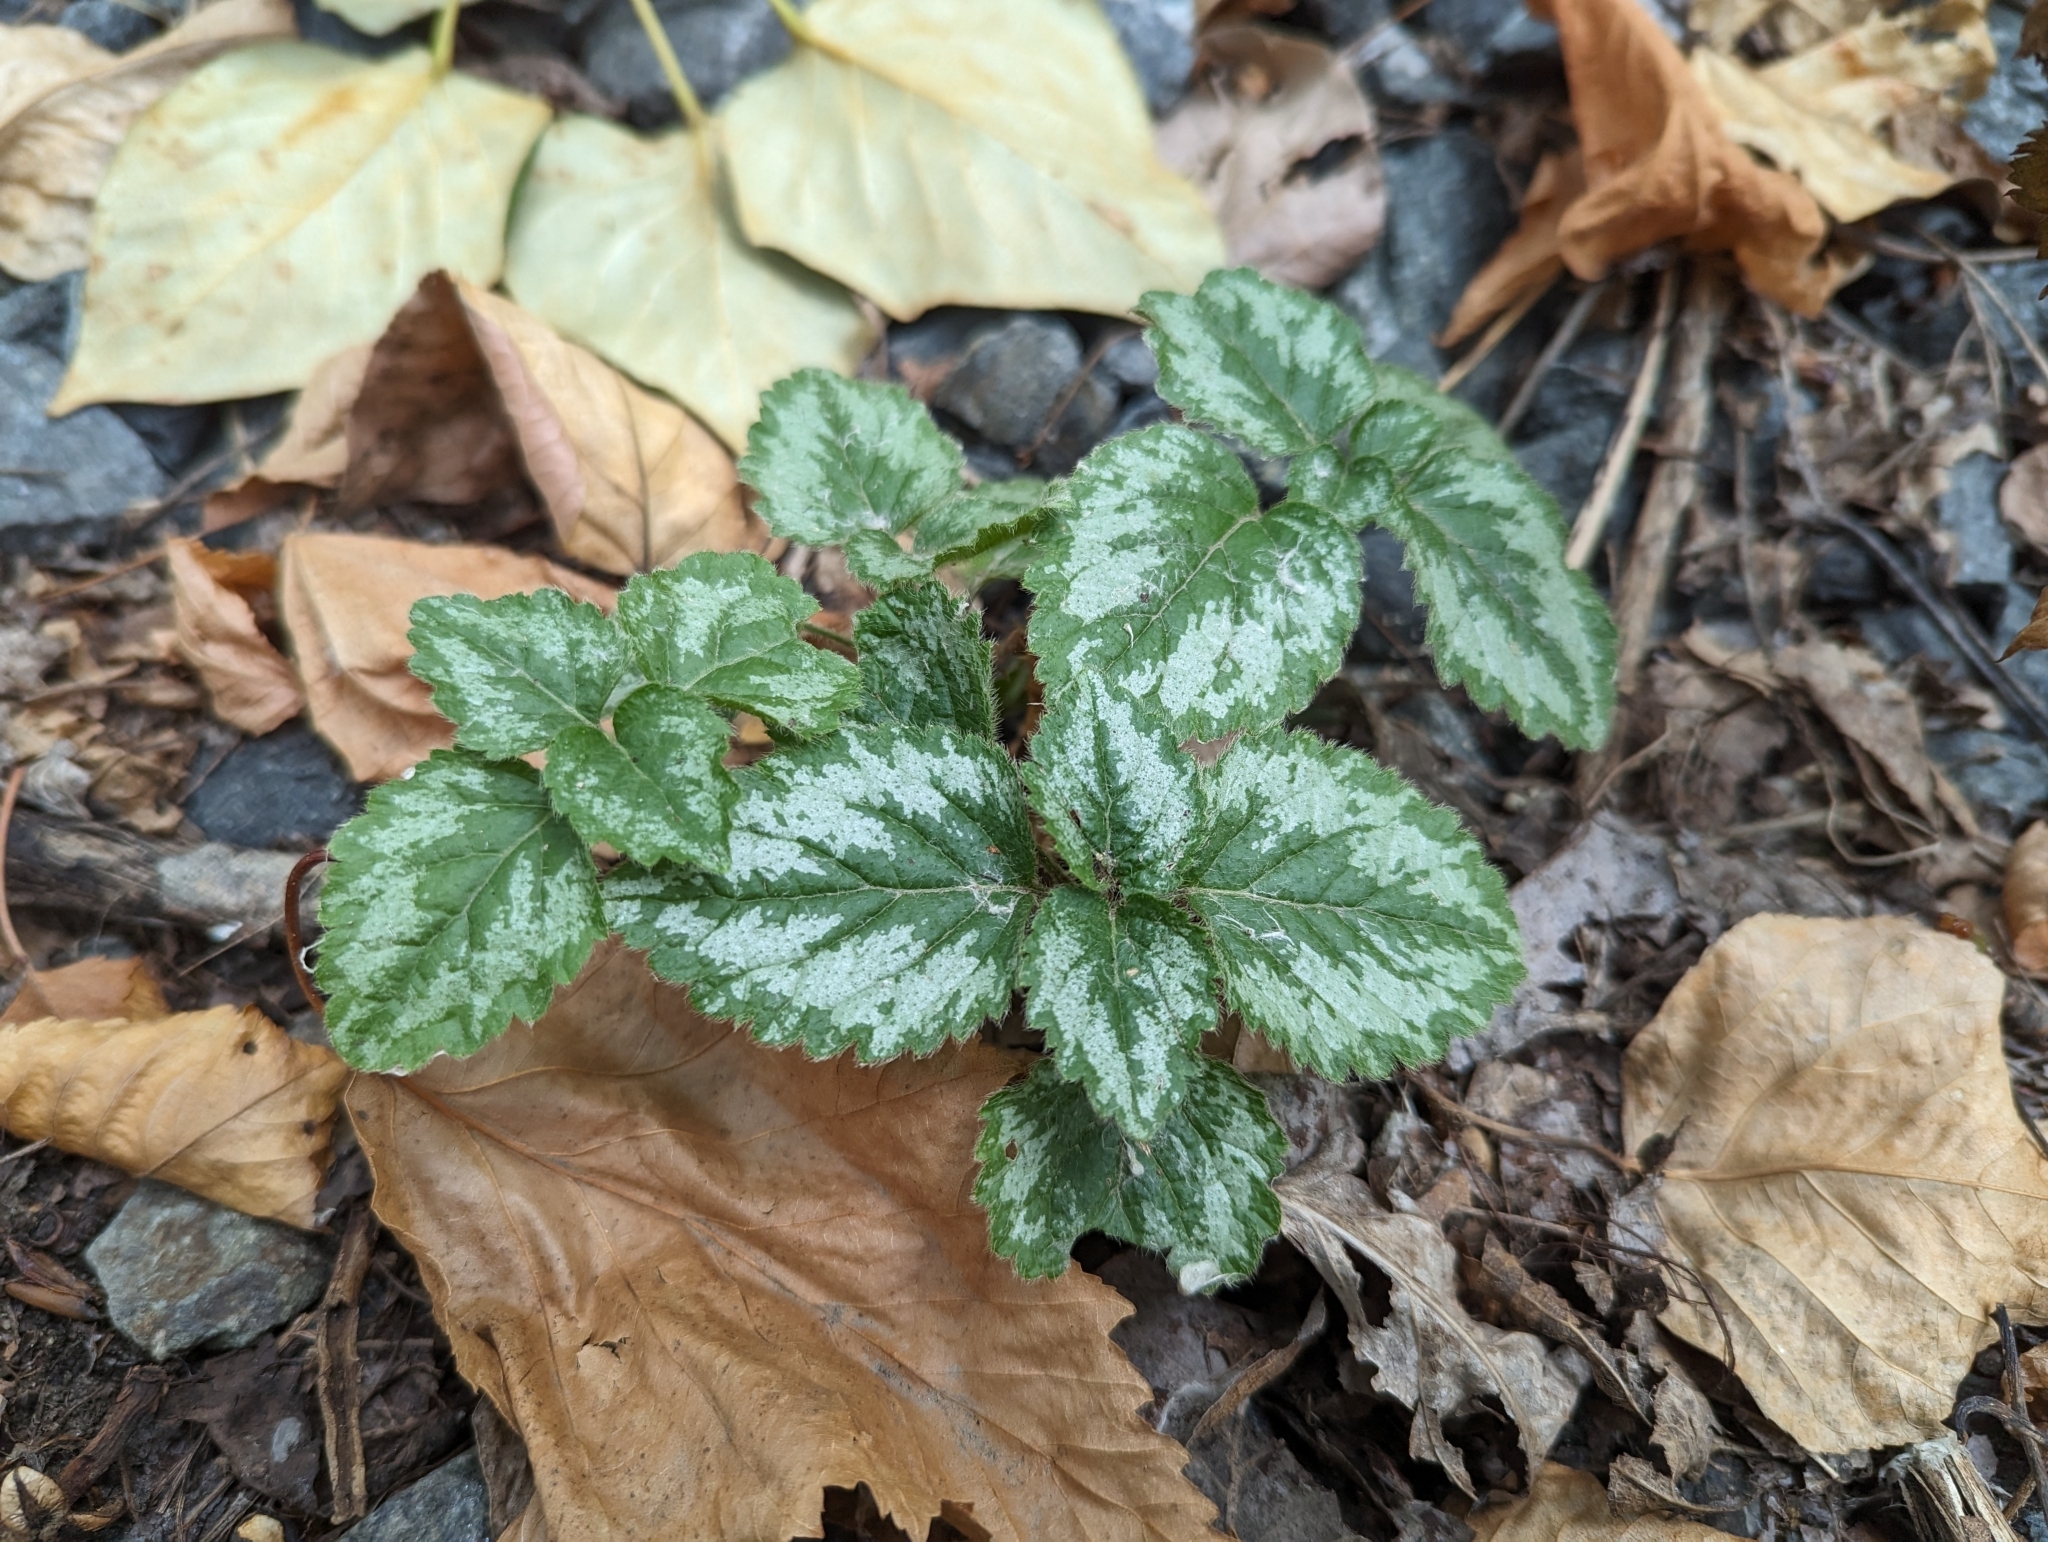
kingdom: Plantae
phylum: Tracheophyta
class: Magnoliopsida
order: Lamiales
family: Lamiaceae
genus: Lamium
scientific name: Lamium galeobdolon
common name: Yellow archangel
